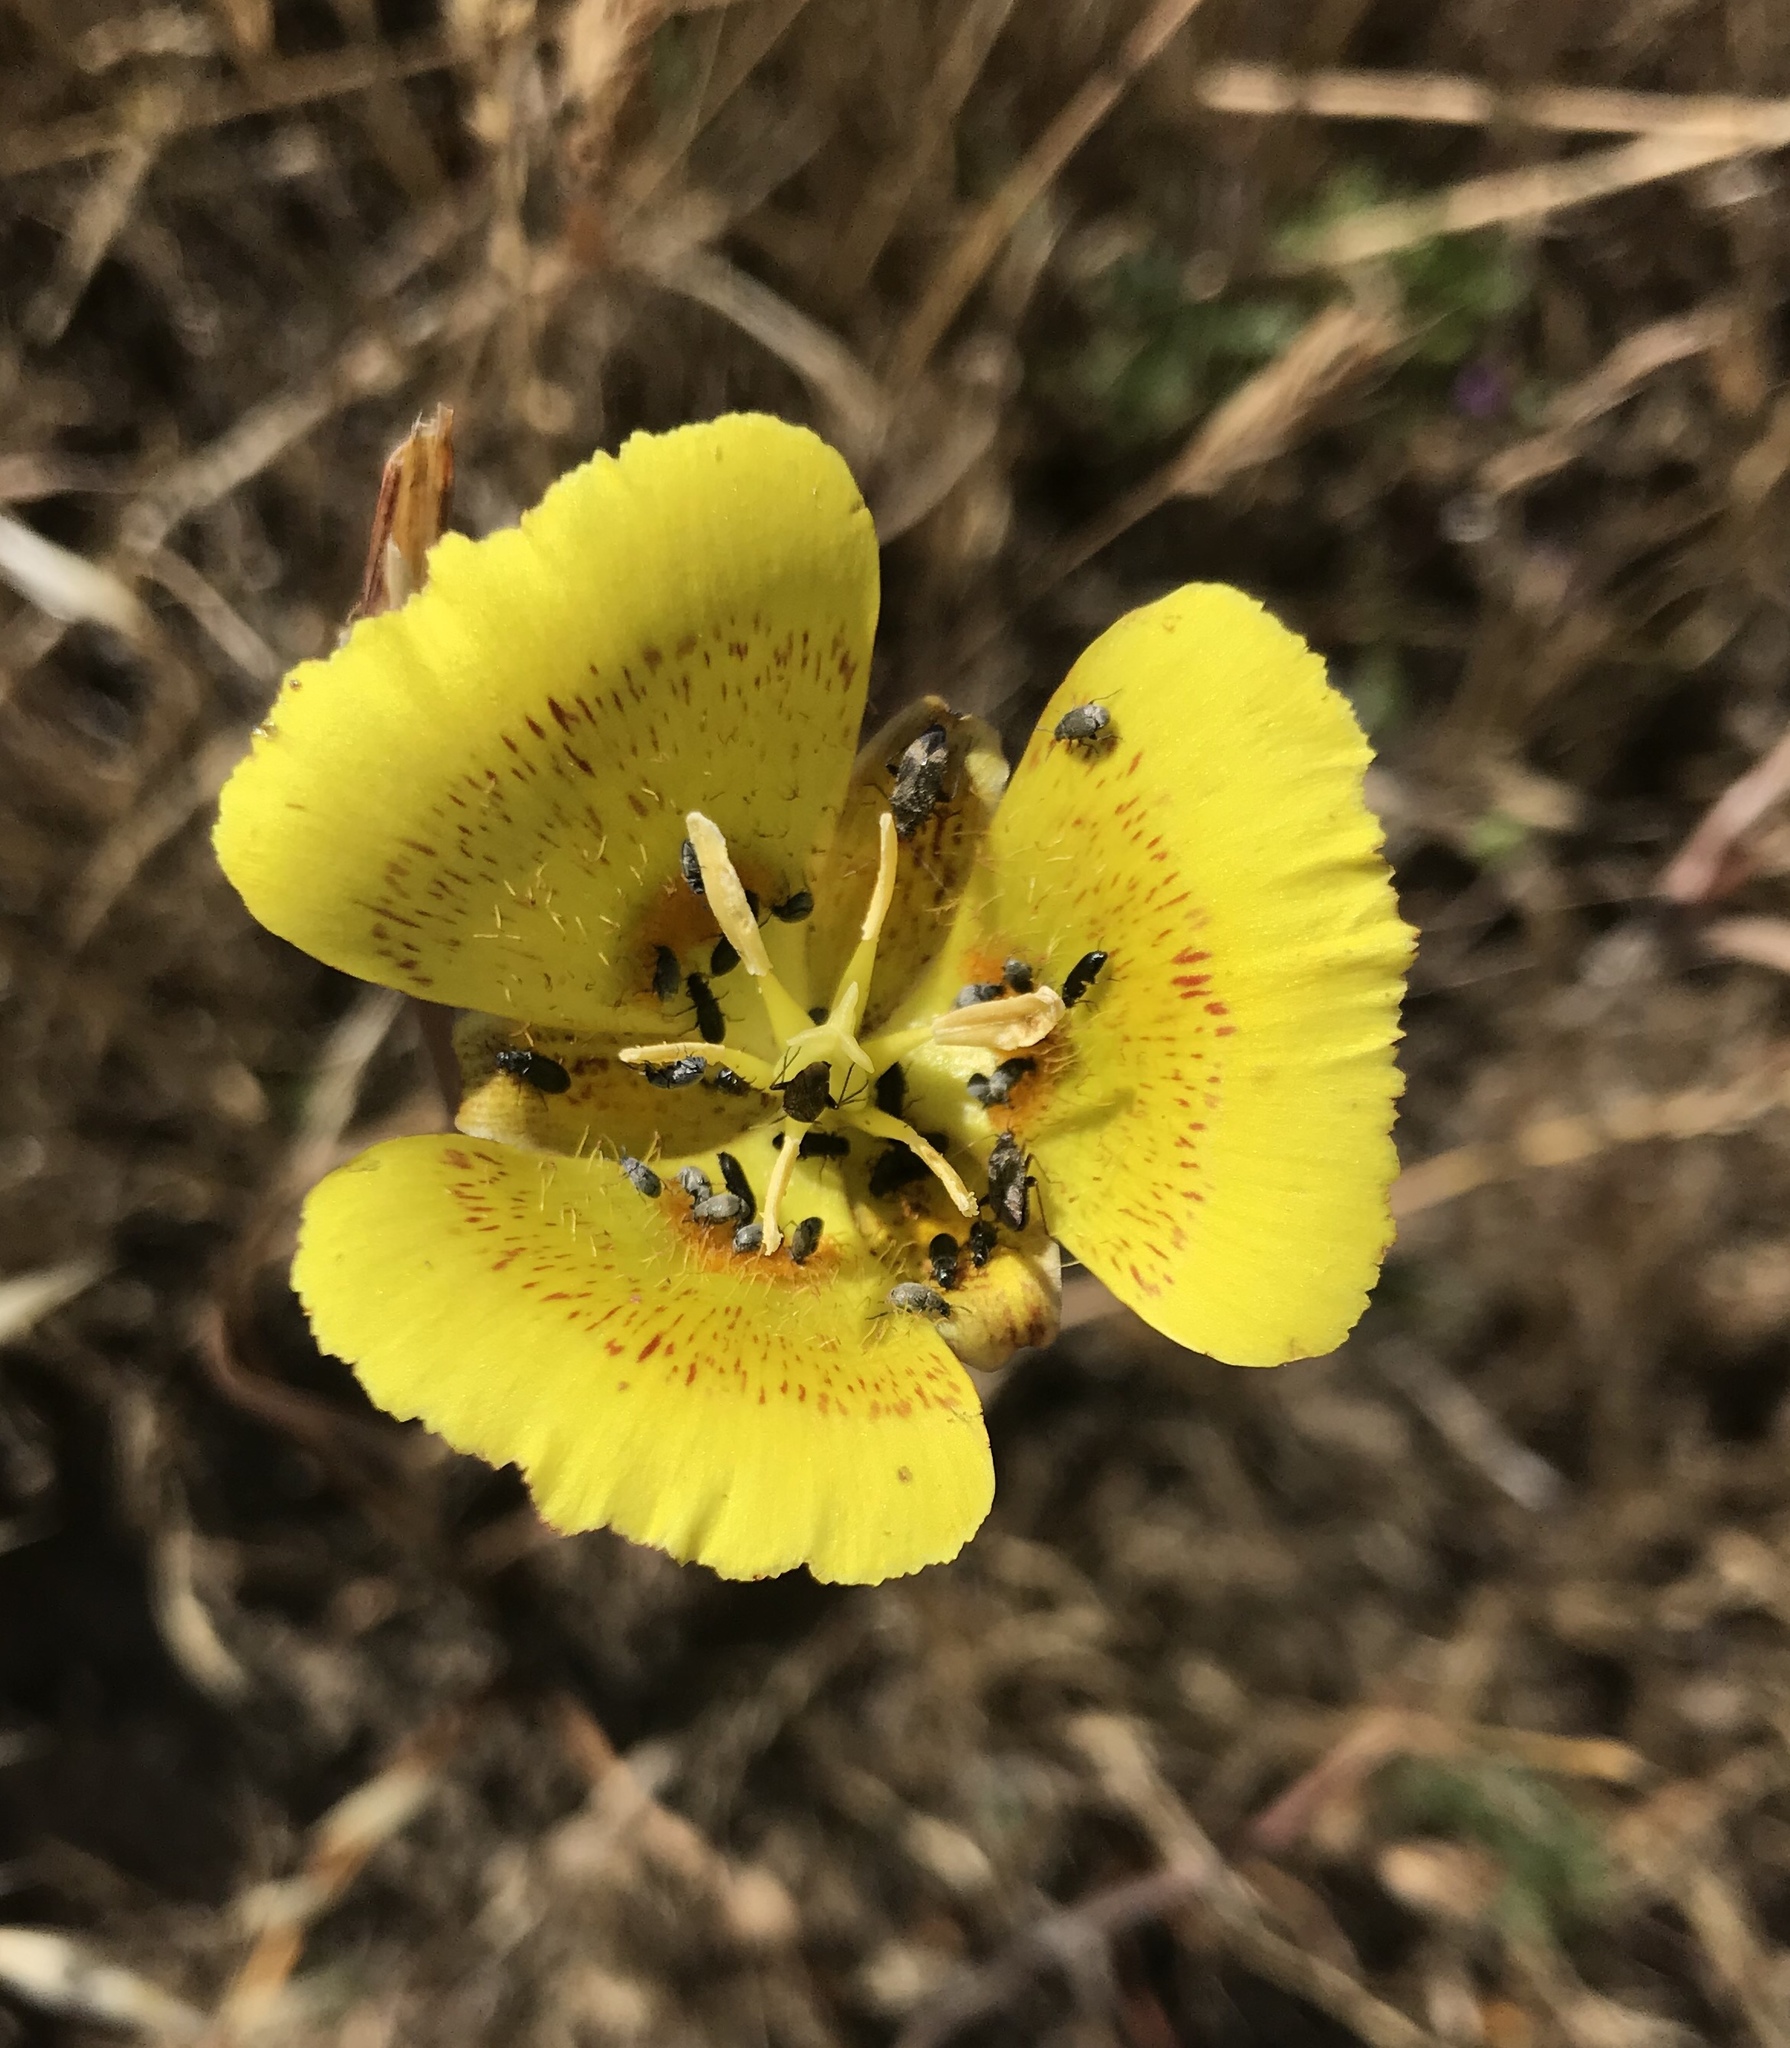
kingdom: Plantae
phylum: Tracheophyta
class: Liliopsida
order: Liliales
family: Liliaceae
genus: Calochortus
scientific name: Calochortus luteus
